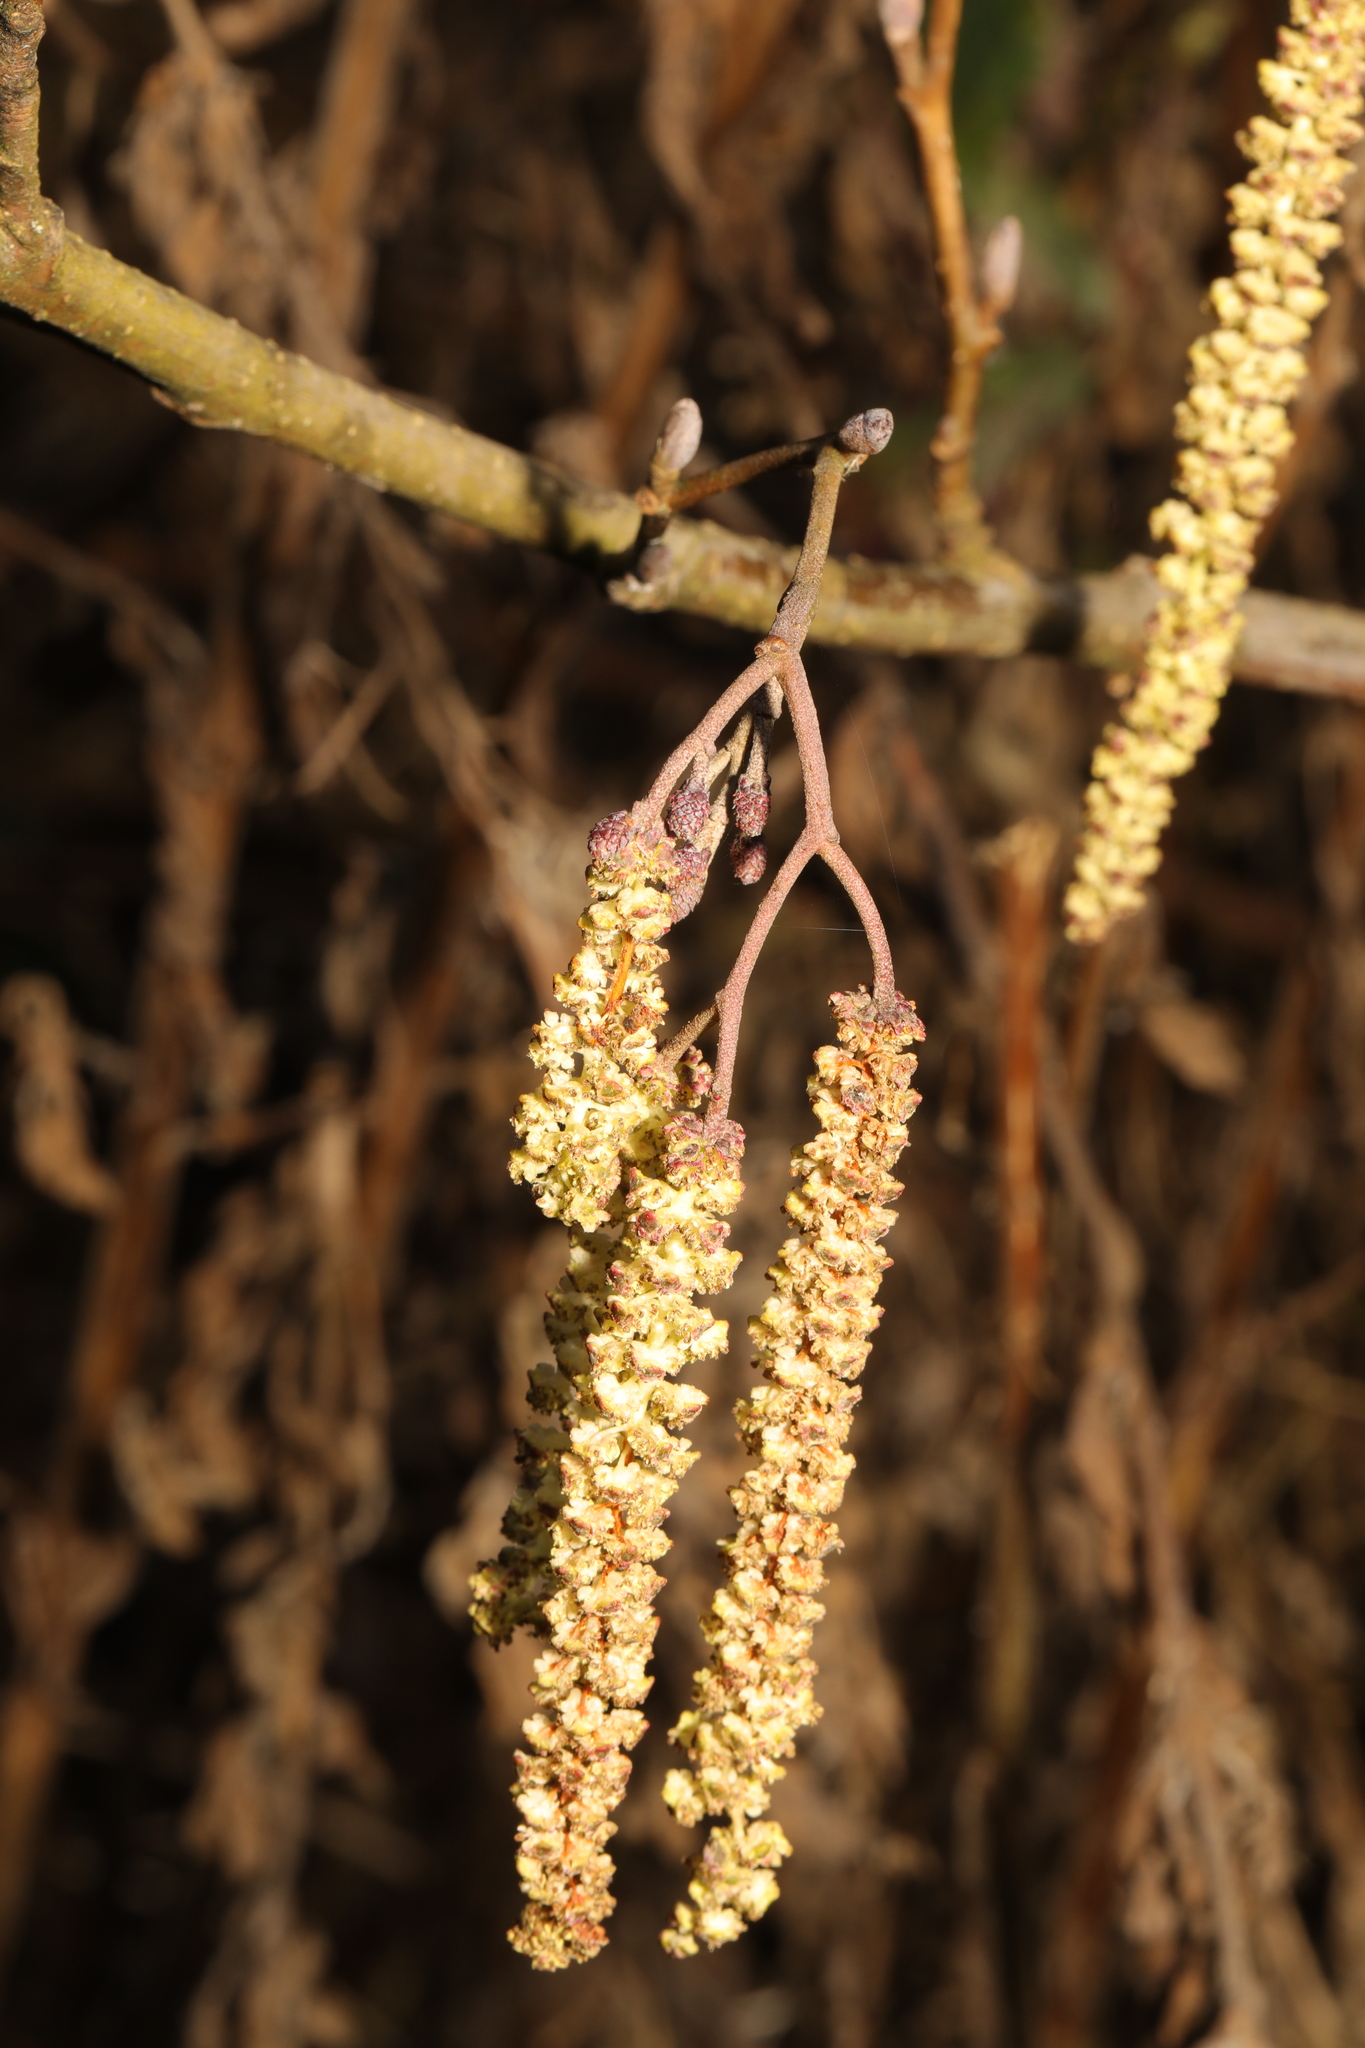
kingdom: Plantae
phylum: Tracheophyta
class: Magnoliopsida
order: Fagales
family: Betulaceae
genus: Alnus
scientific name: Alnus glutinosa
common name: Black alder
